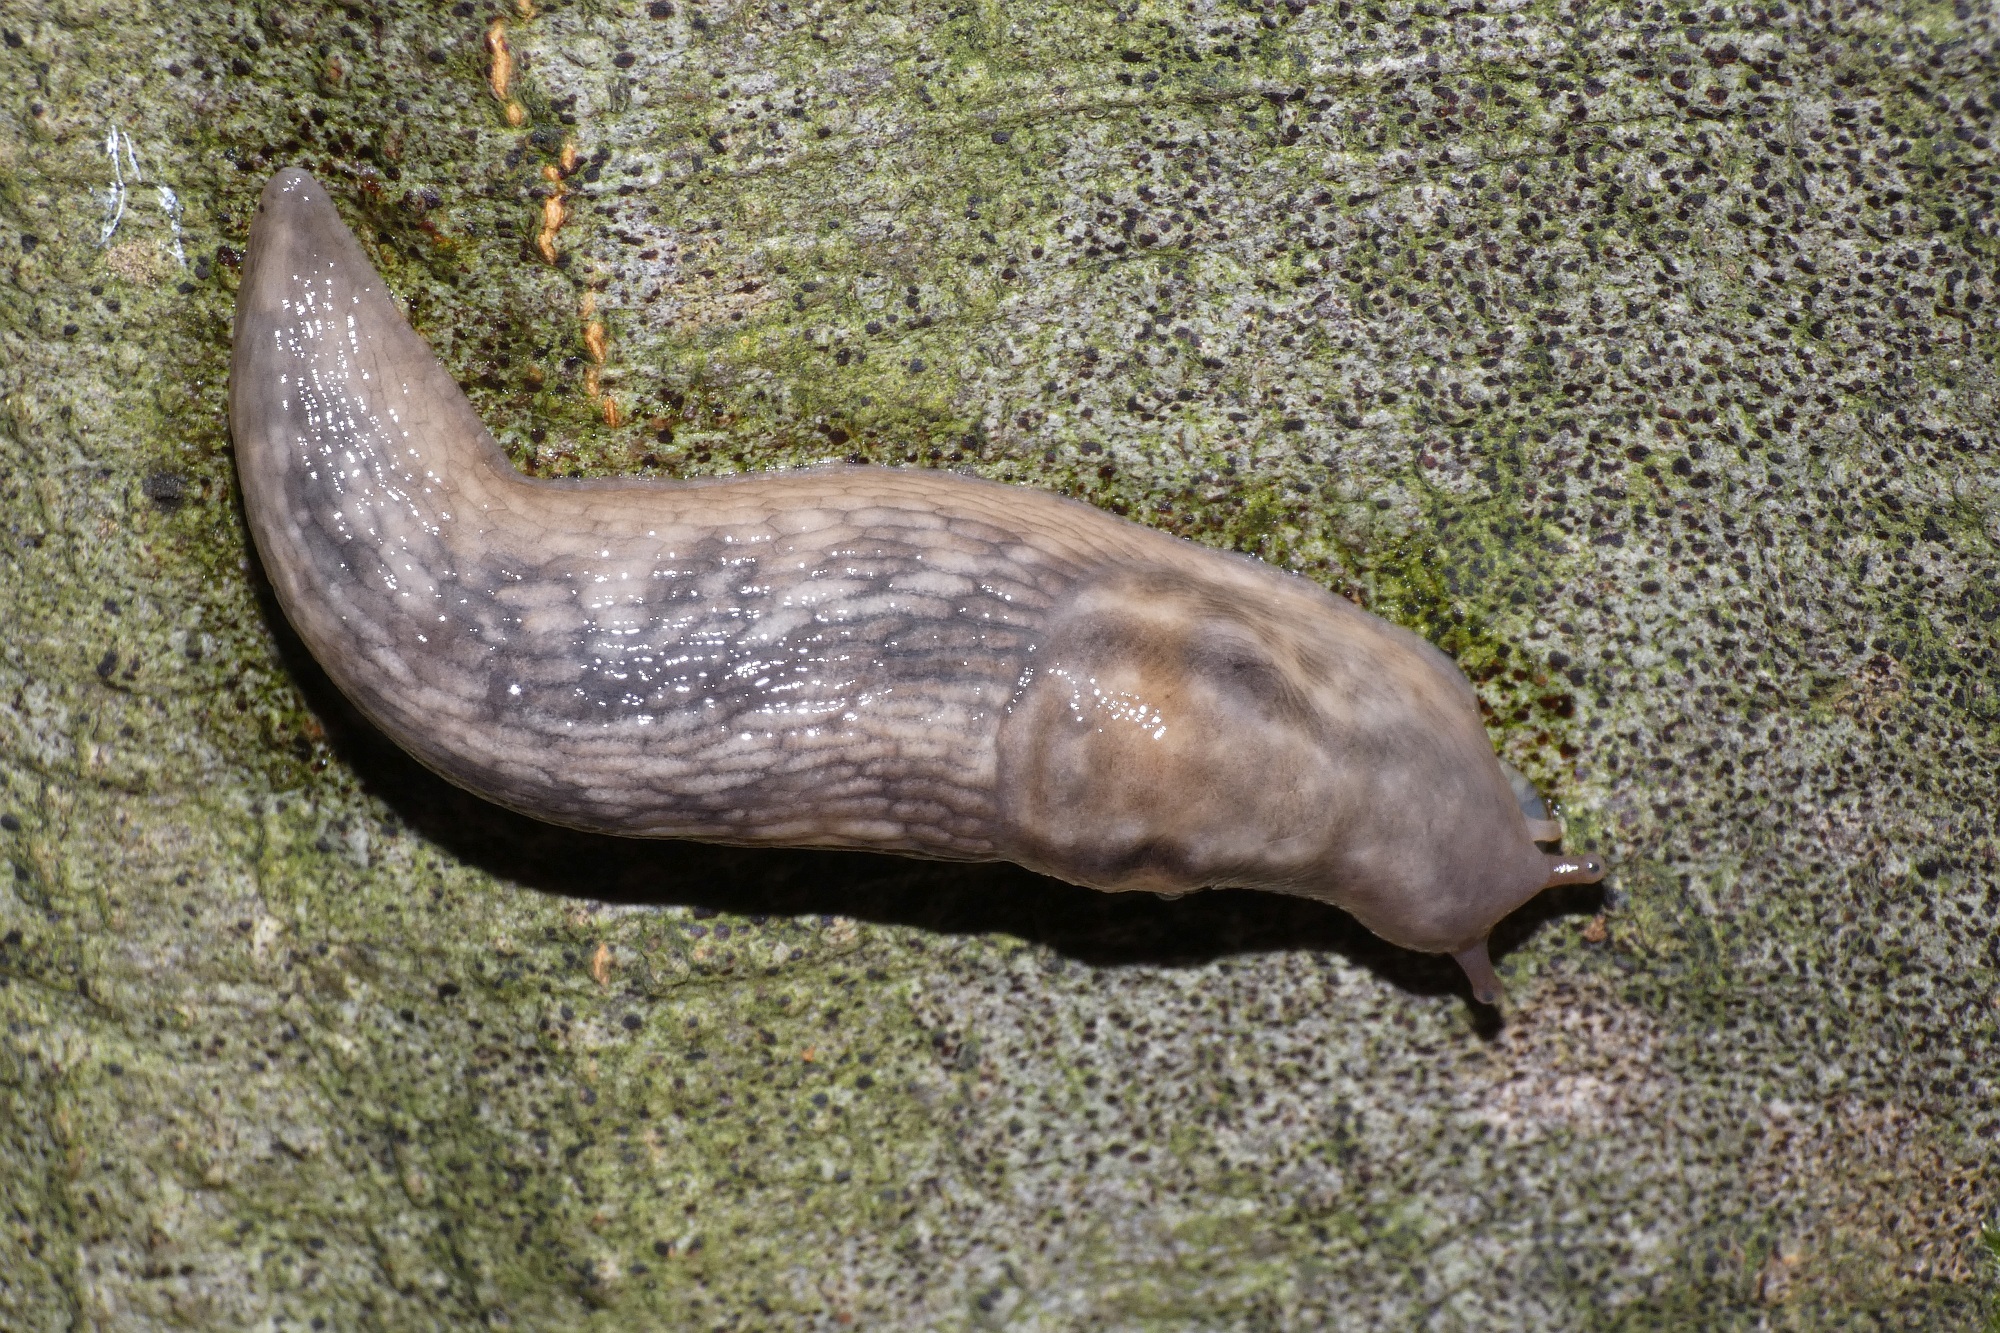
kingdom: Animalia
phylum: Mollusca
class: Gastropoda
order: Stylommatophora
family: Limacidae
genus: Lehmannia
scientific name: Lehmannia marginata
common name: Tree slug
